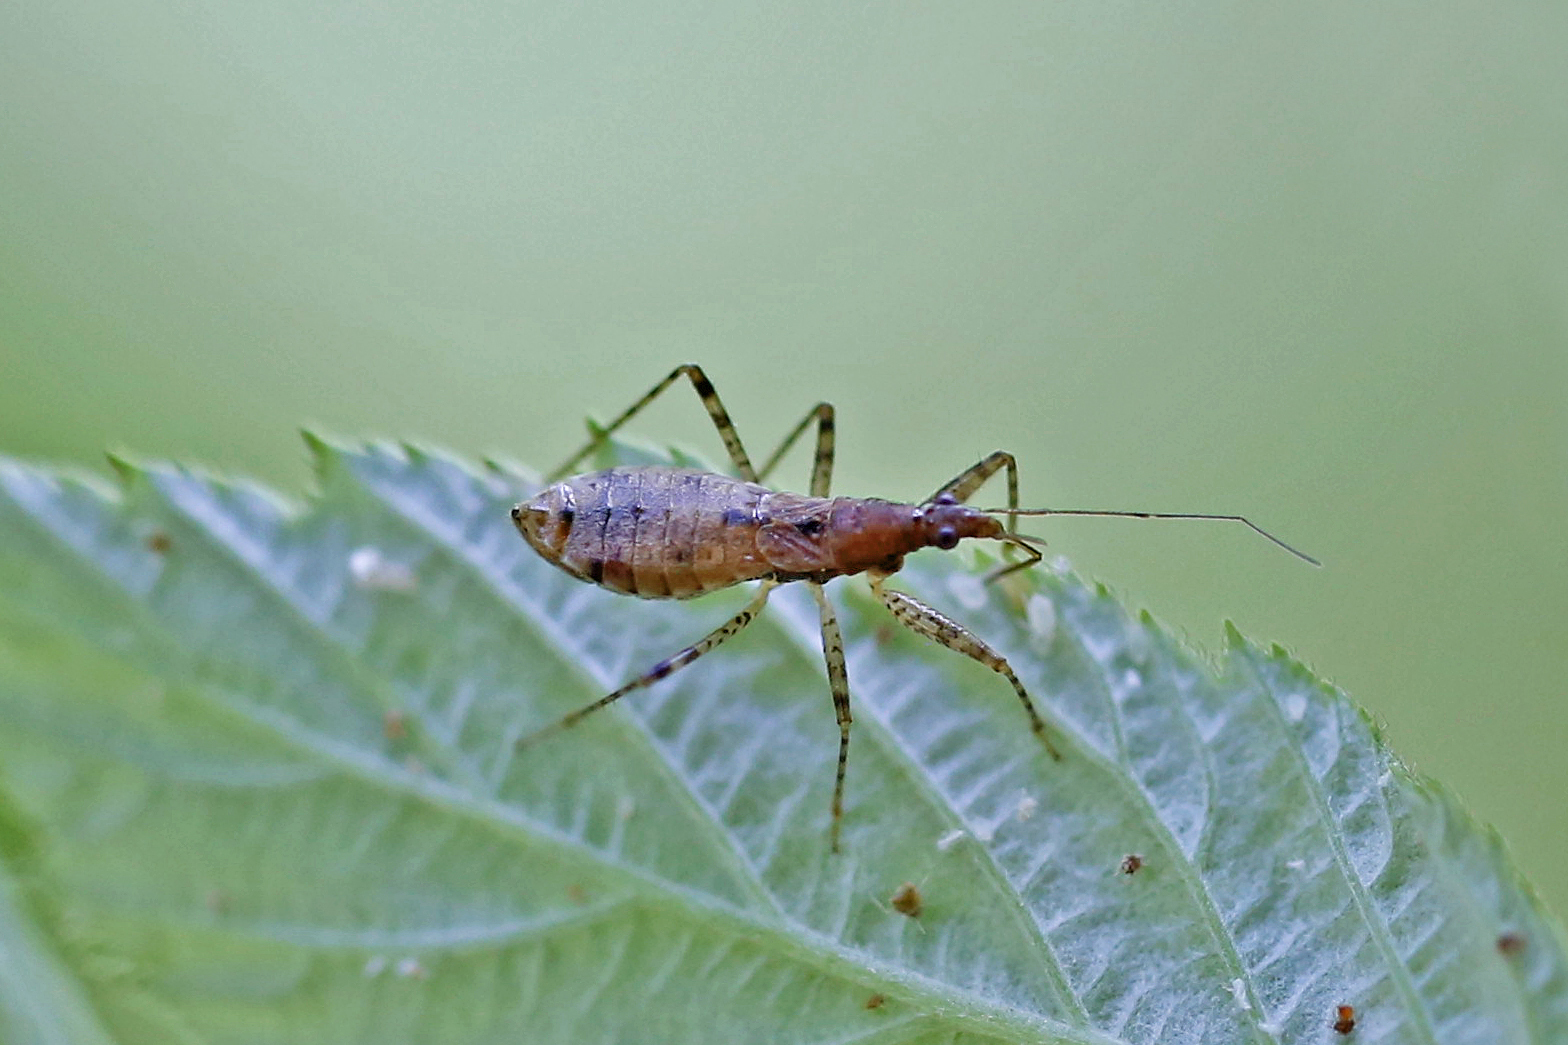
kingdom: Animalia
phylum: Arthropoda
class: Insecta
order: Hemiptera
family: Nabidae
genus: Hoplistoscelis
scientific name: Hoplistoscelis pallescens
